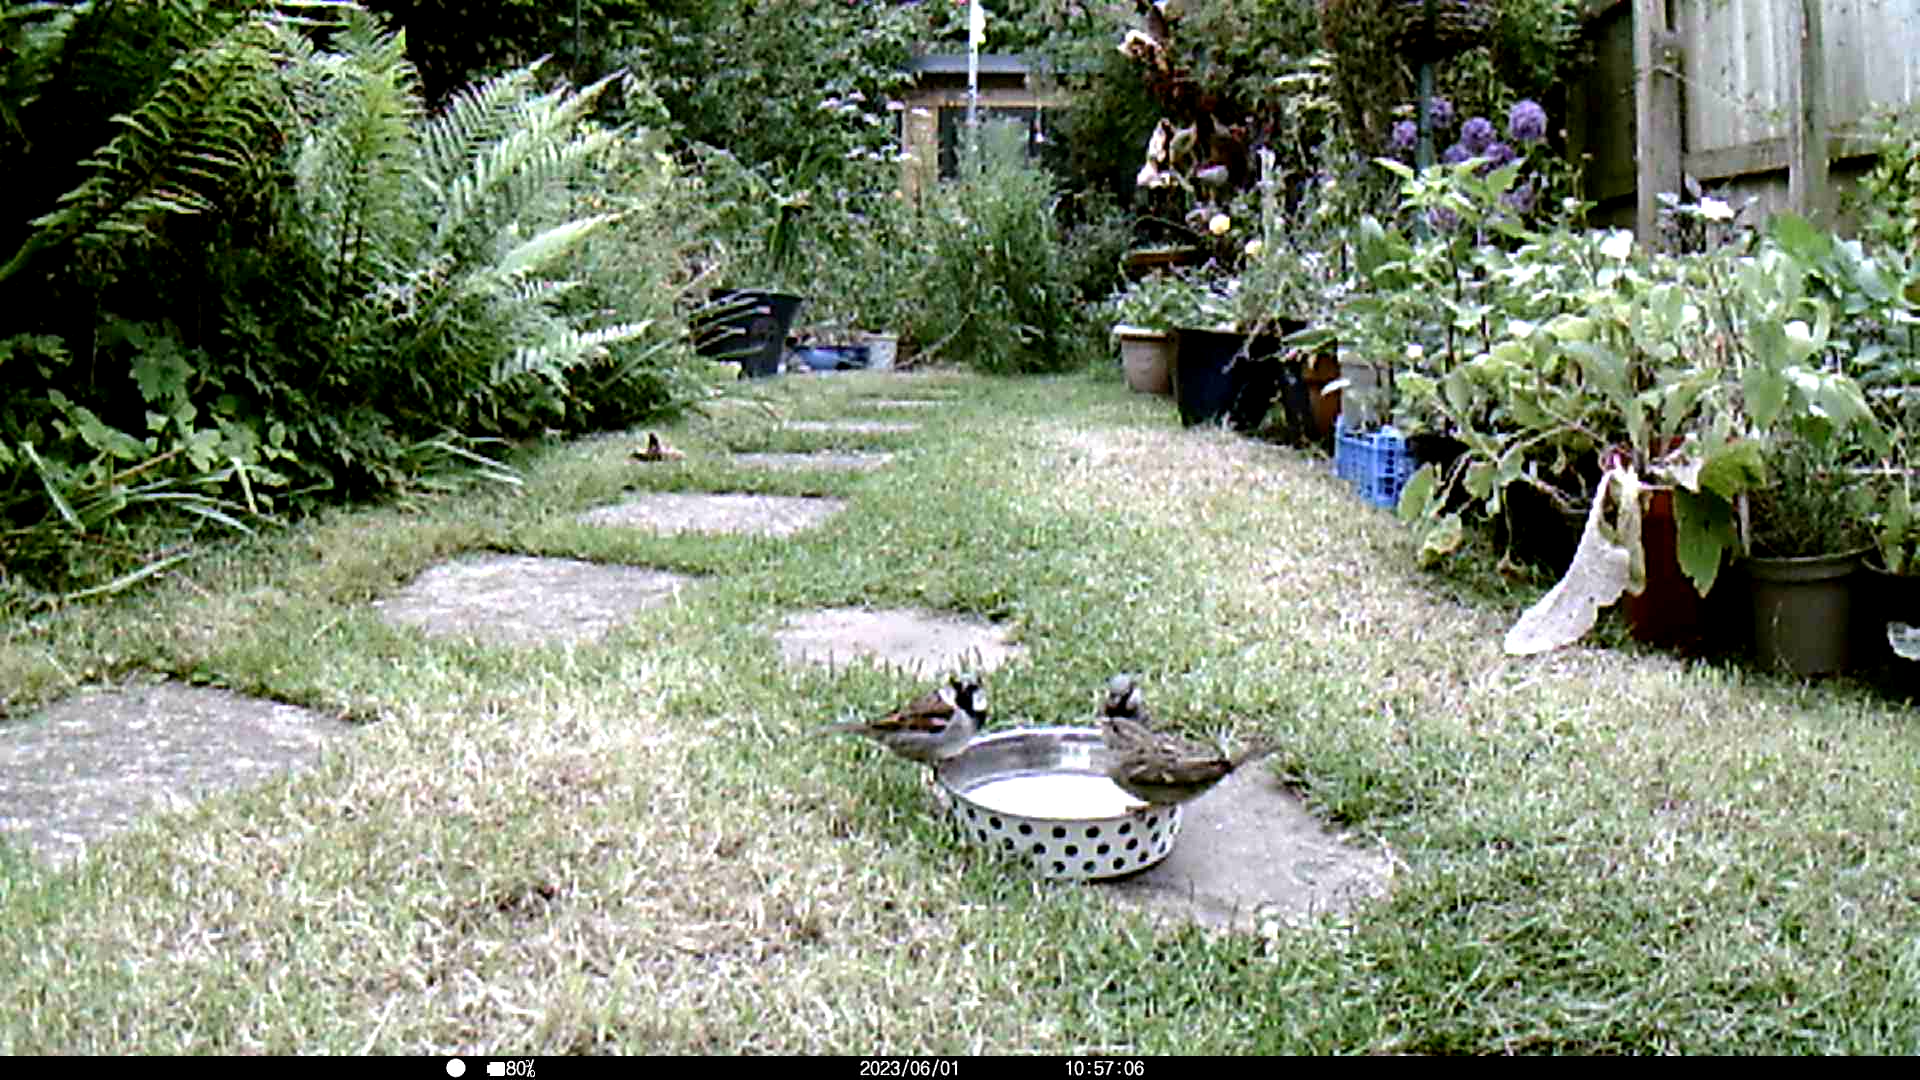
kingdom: Animalia
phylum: Chordata
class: Aves
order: Passeriformes
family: Passeridae
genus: Passer
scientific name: Passer domesticus
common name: House sparrow
